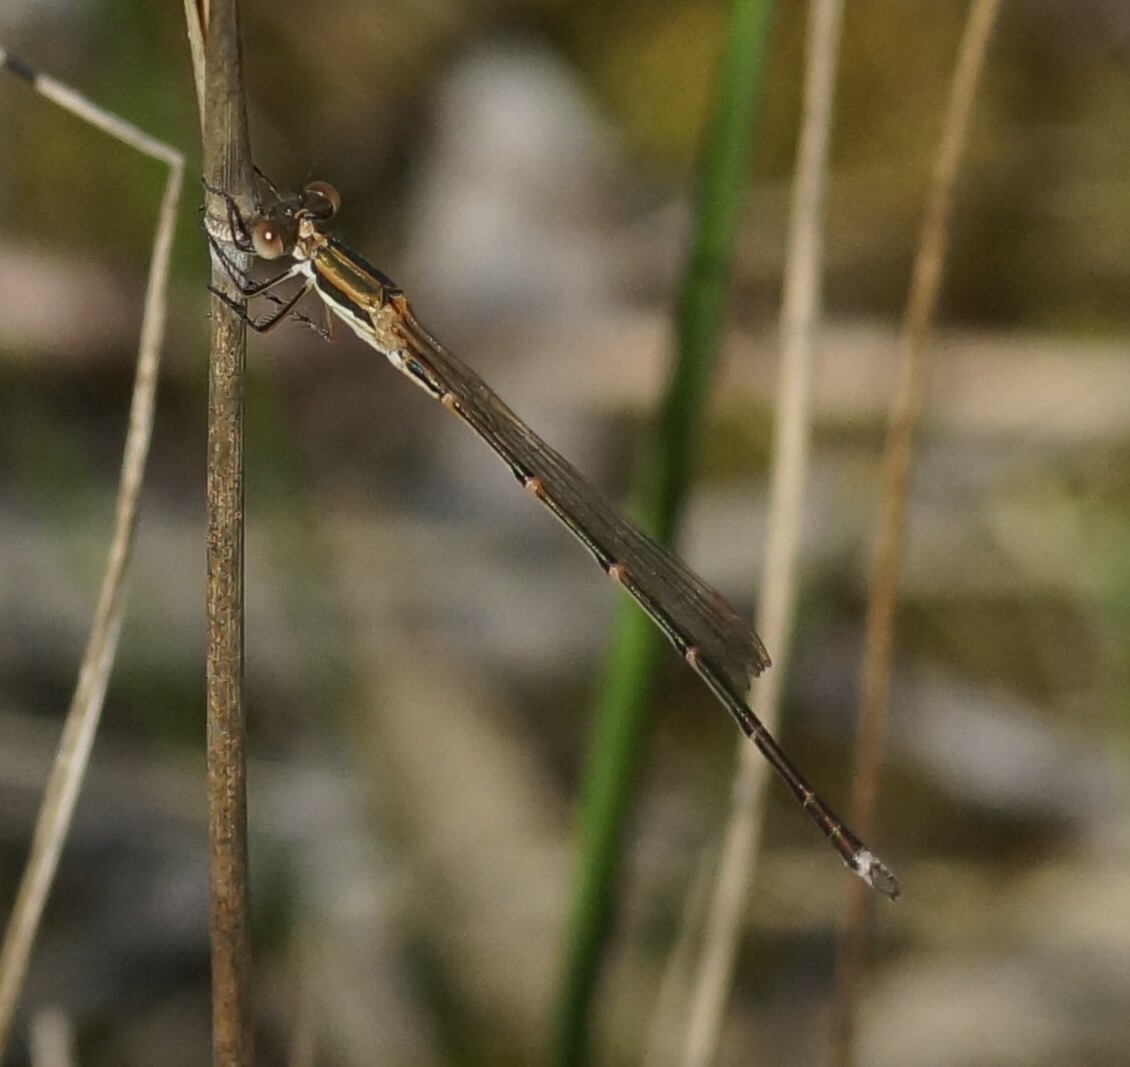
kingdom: Animalia
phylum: Arthropoda
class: Insecta
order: Odonata
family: Lestidae
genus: Austrolestes
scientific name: Austrolestes analis
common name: Slender ringtail
